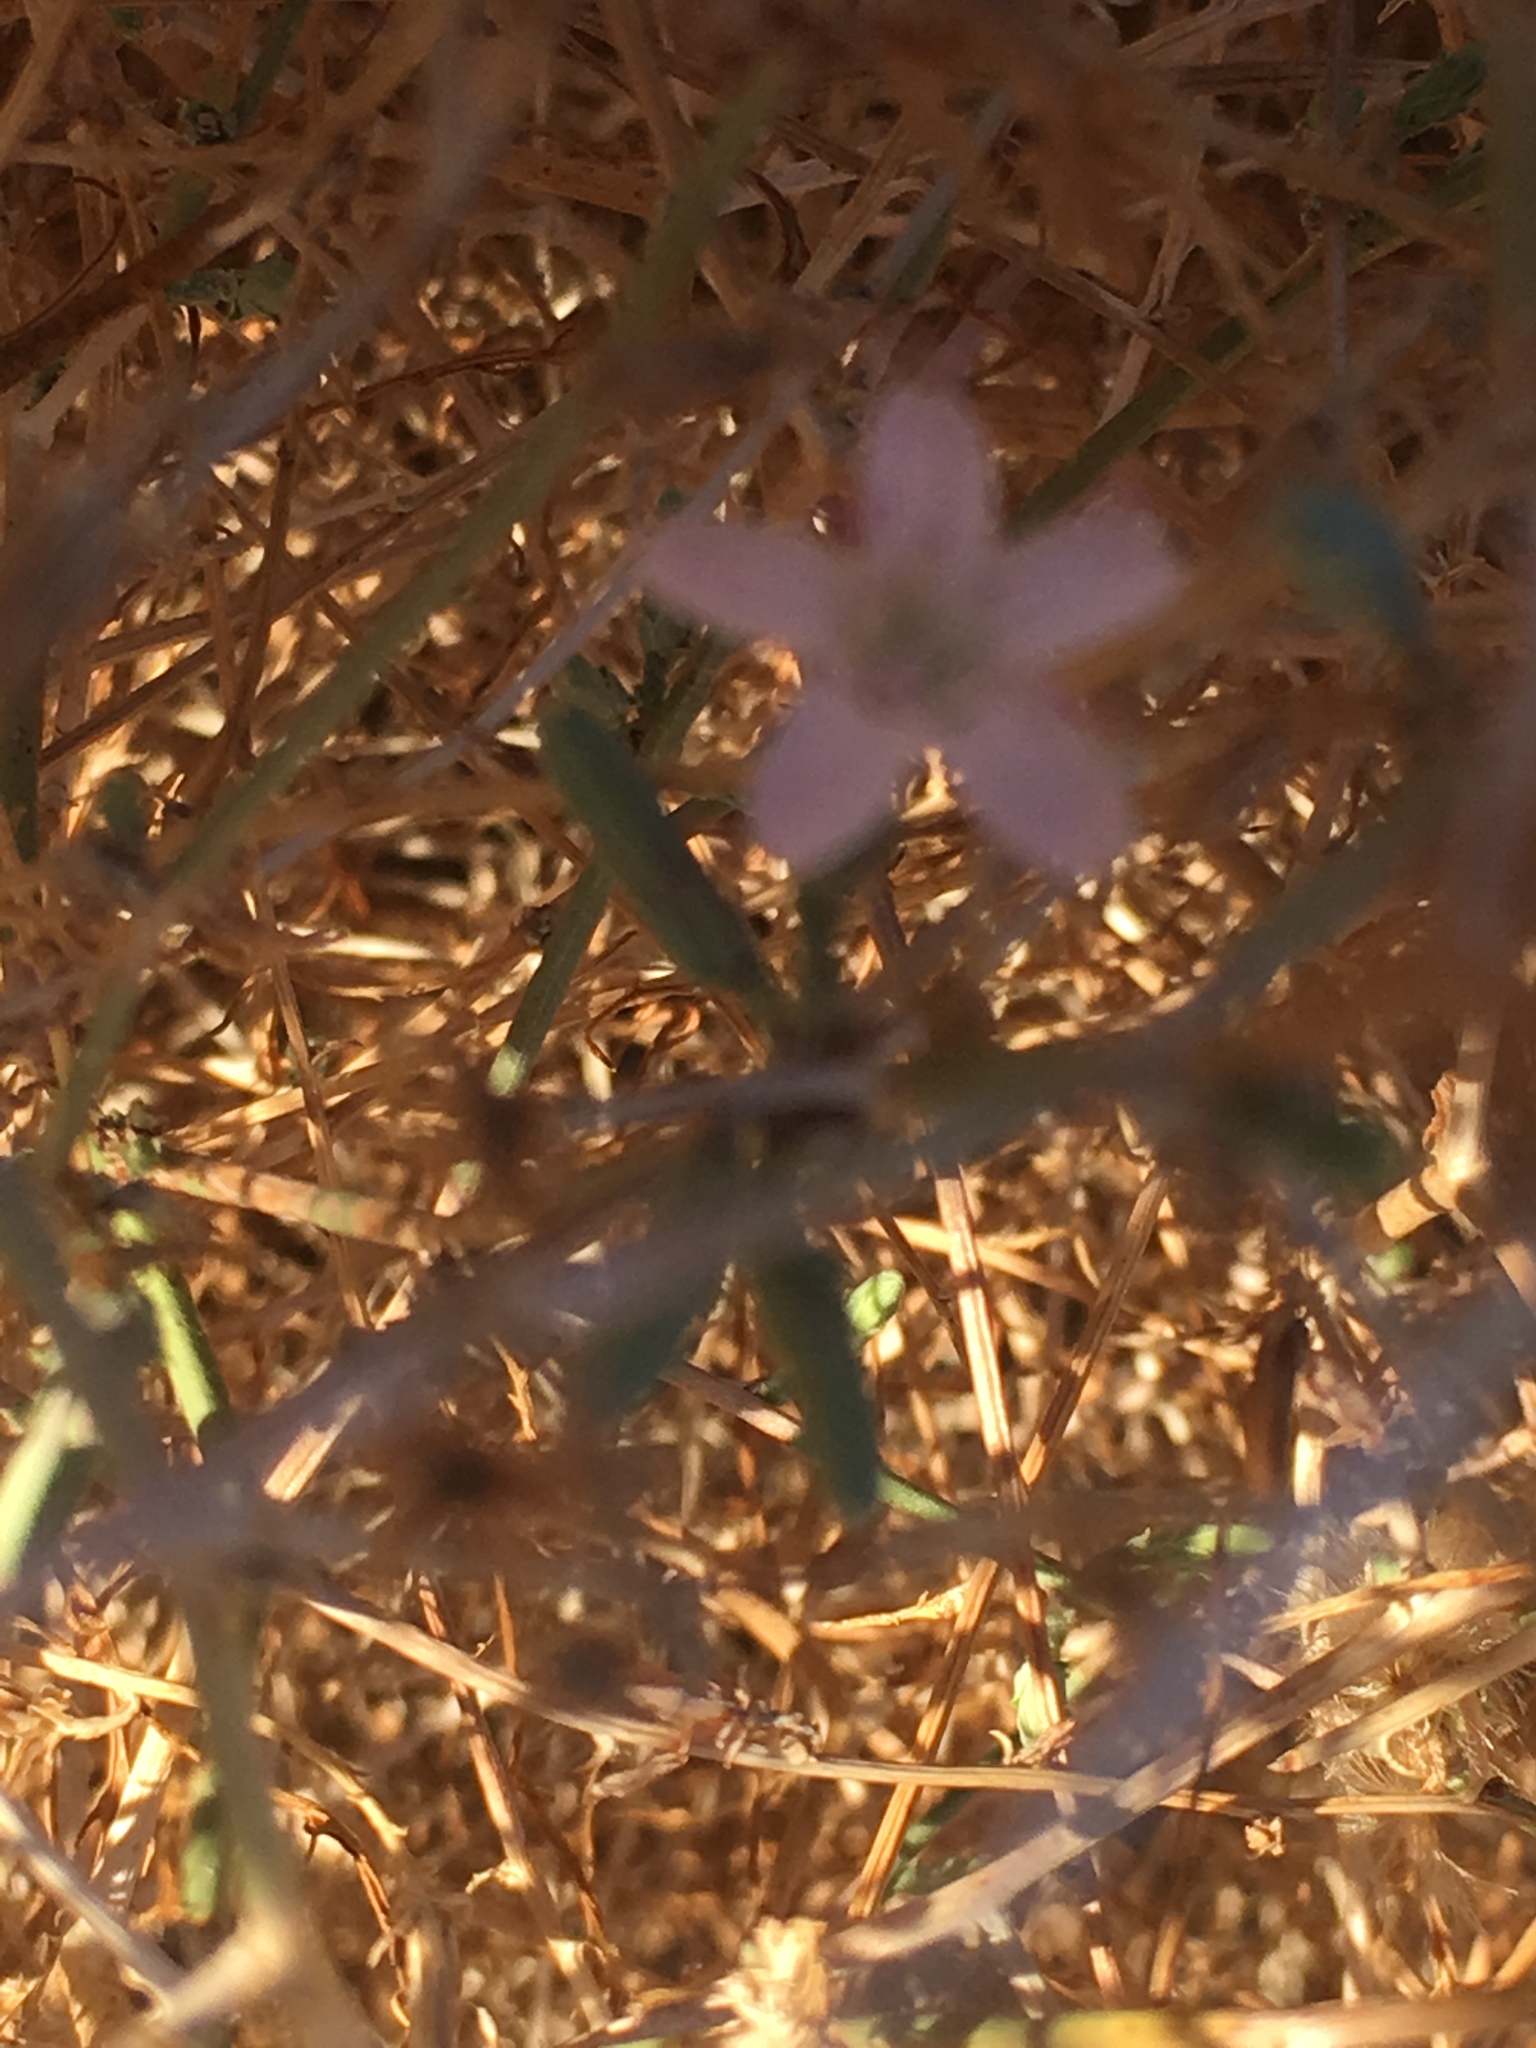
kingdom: Plantae
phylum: Tracheophyta
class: Magnoliopsida
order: Asterales
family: Asteraceae
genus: Stephanomeria
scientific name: Stephanomeria pauciflora
